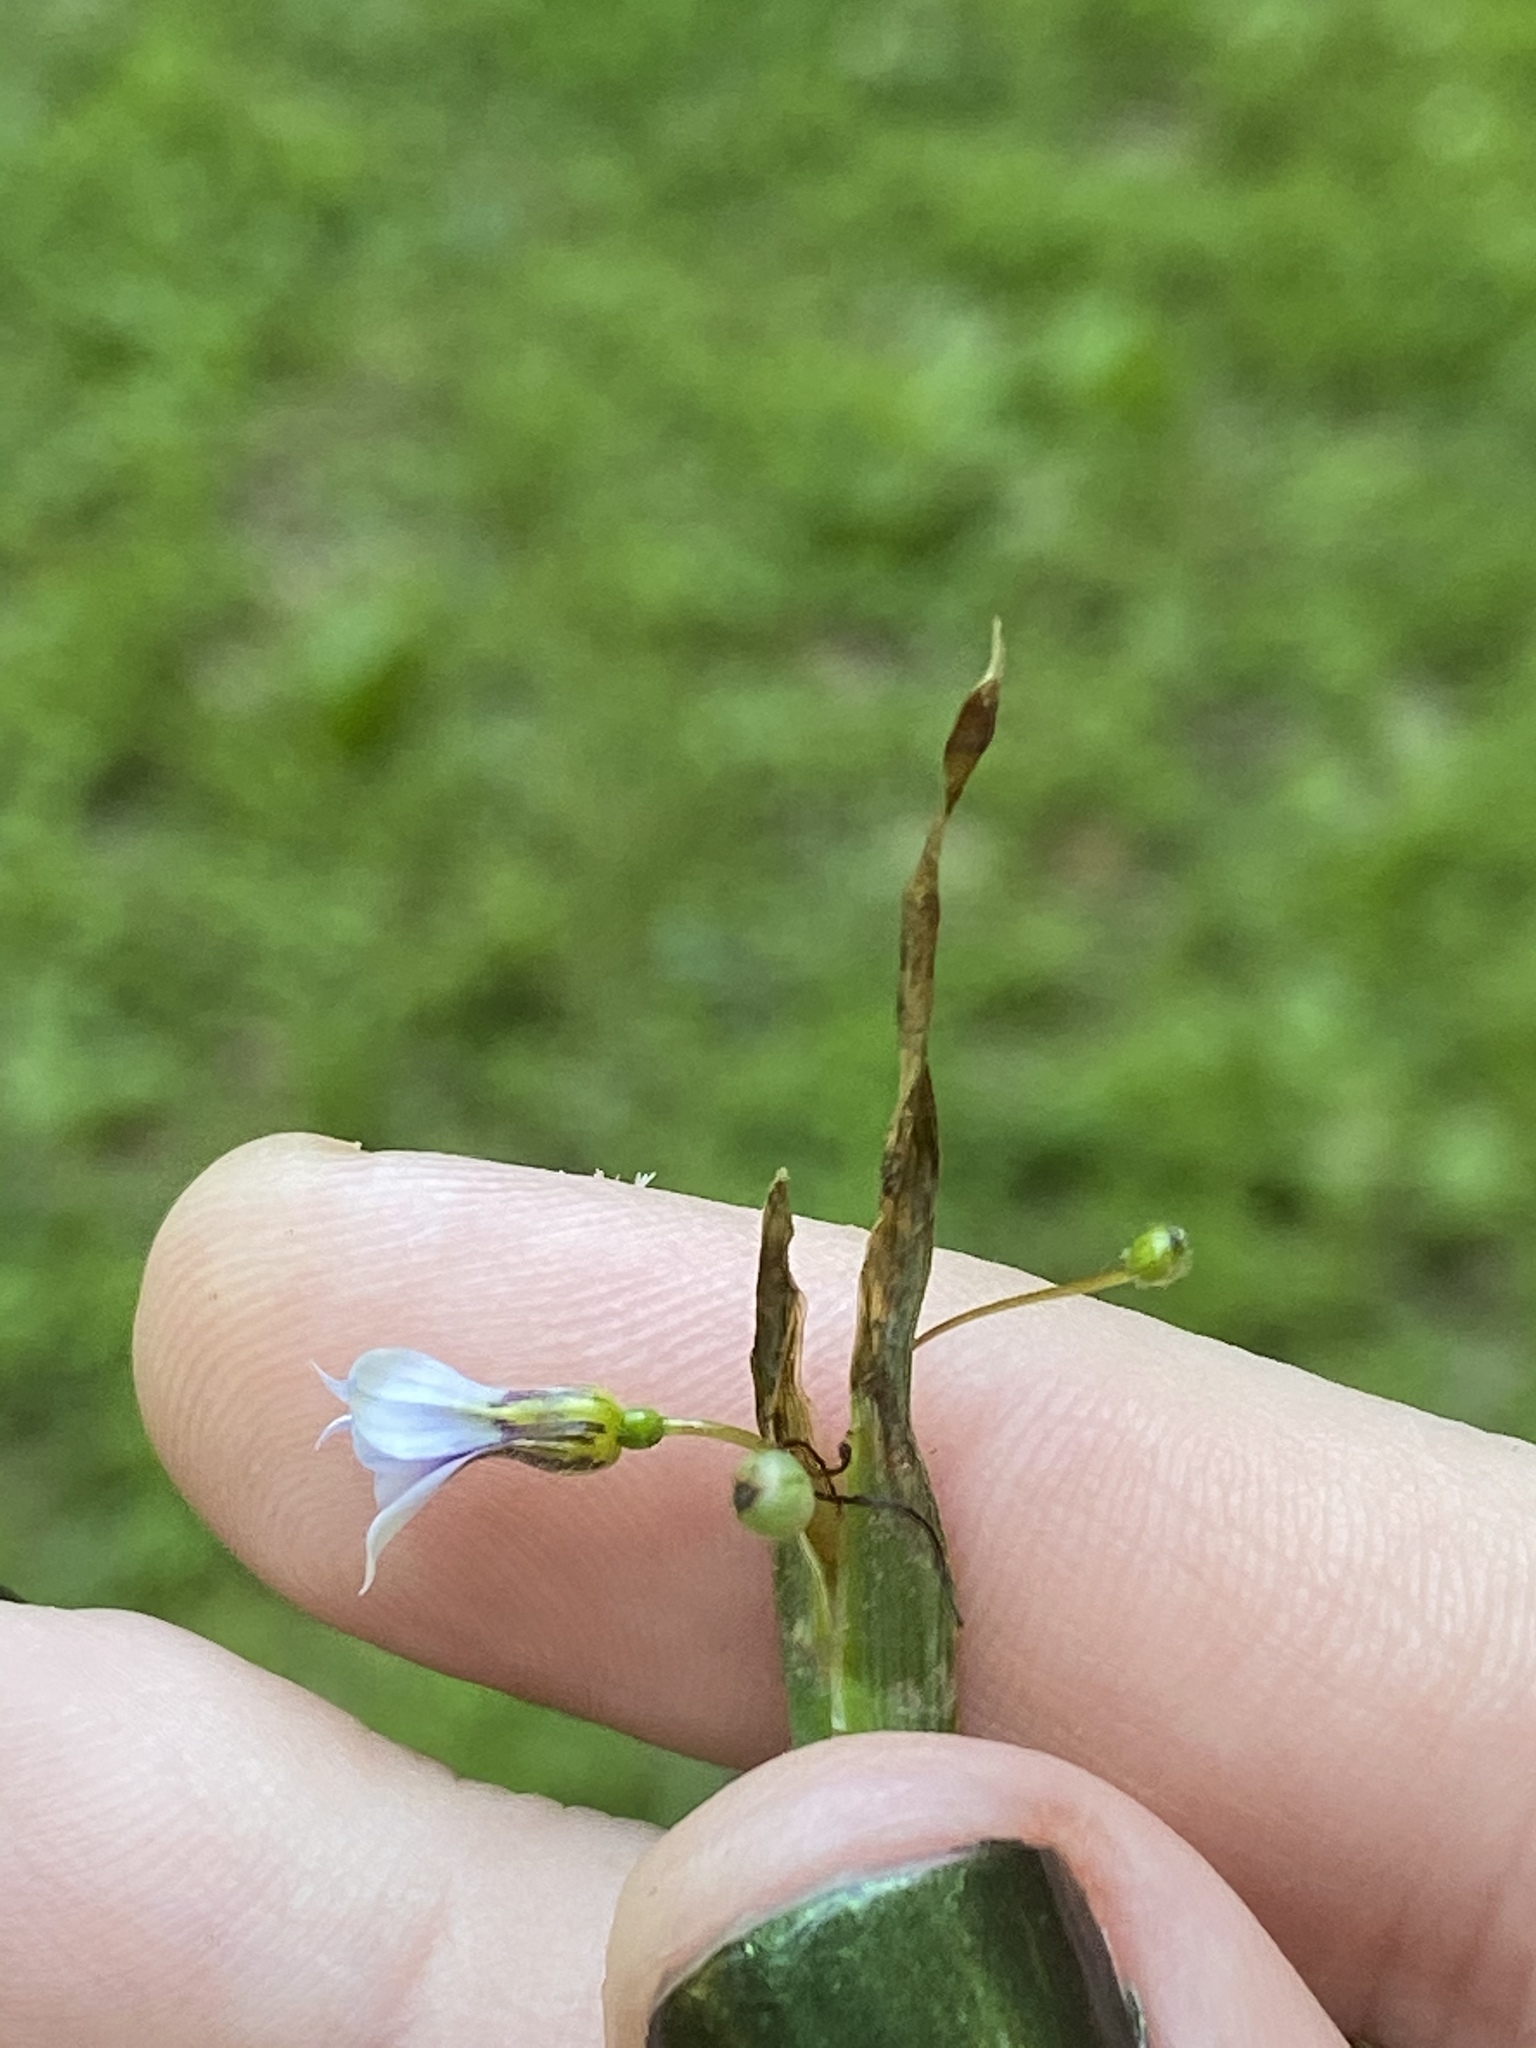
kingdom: Plantae
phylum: Tracheophyta
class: Liliopsida
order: Asparagales
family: Iridaceae
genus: Sisyrinchium
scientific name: Sisyrinchium micranthum
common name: Bermuda pigroot
